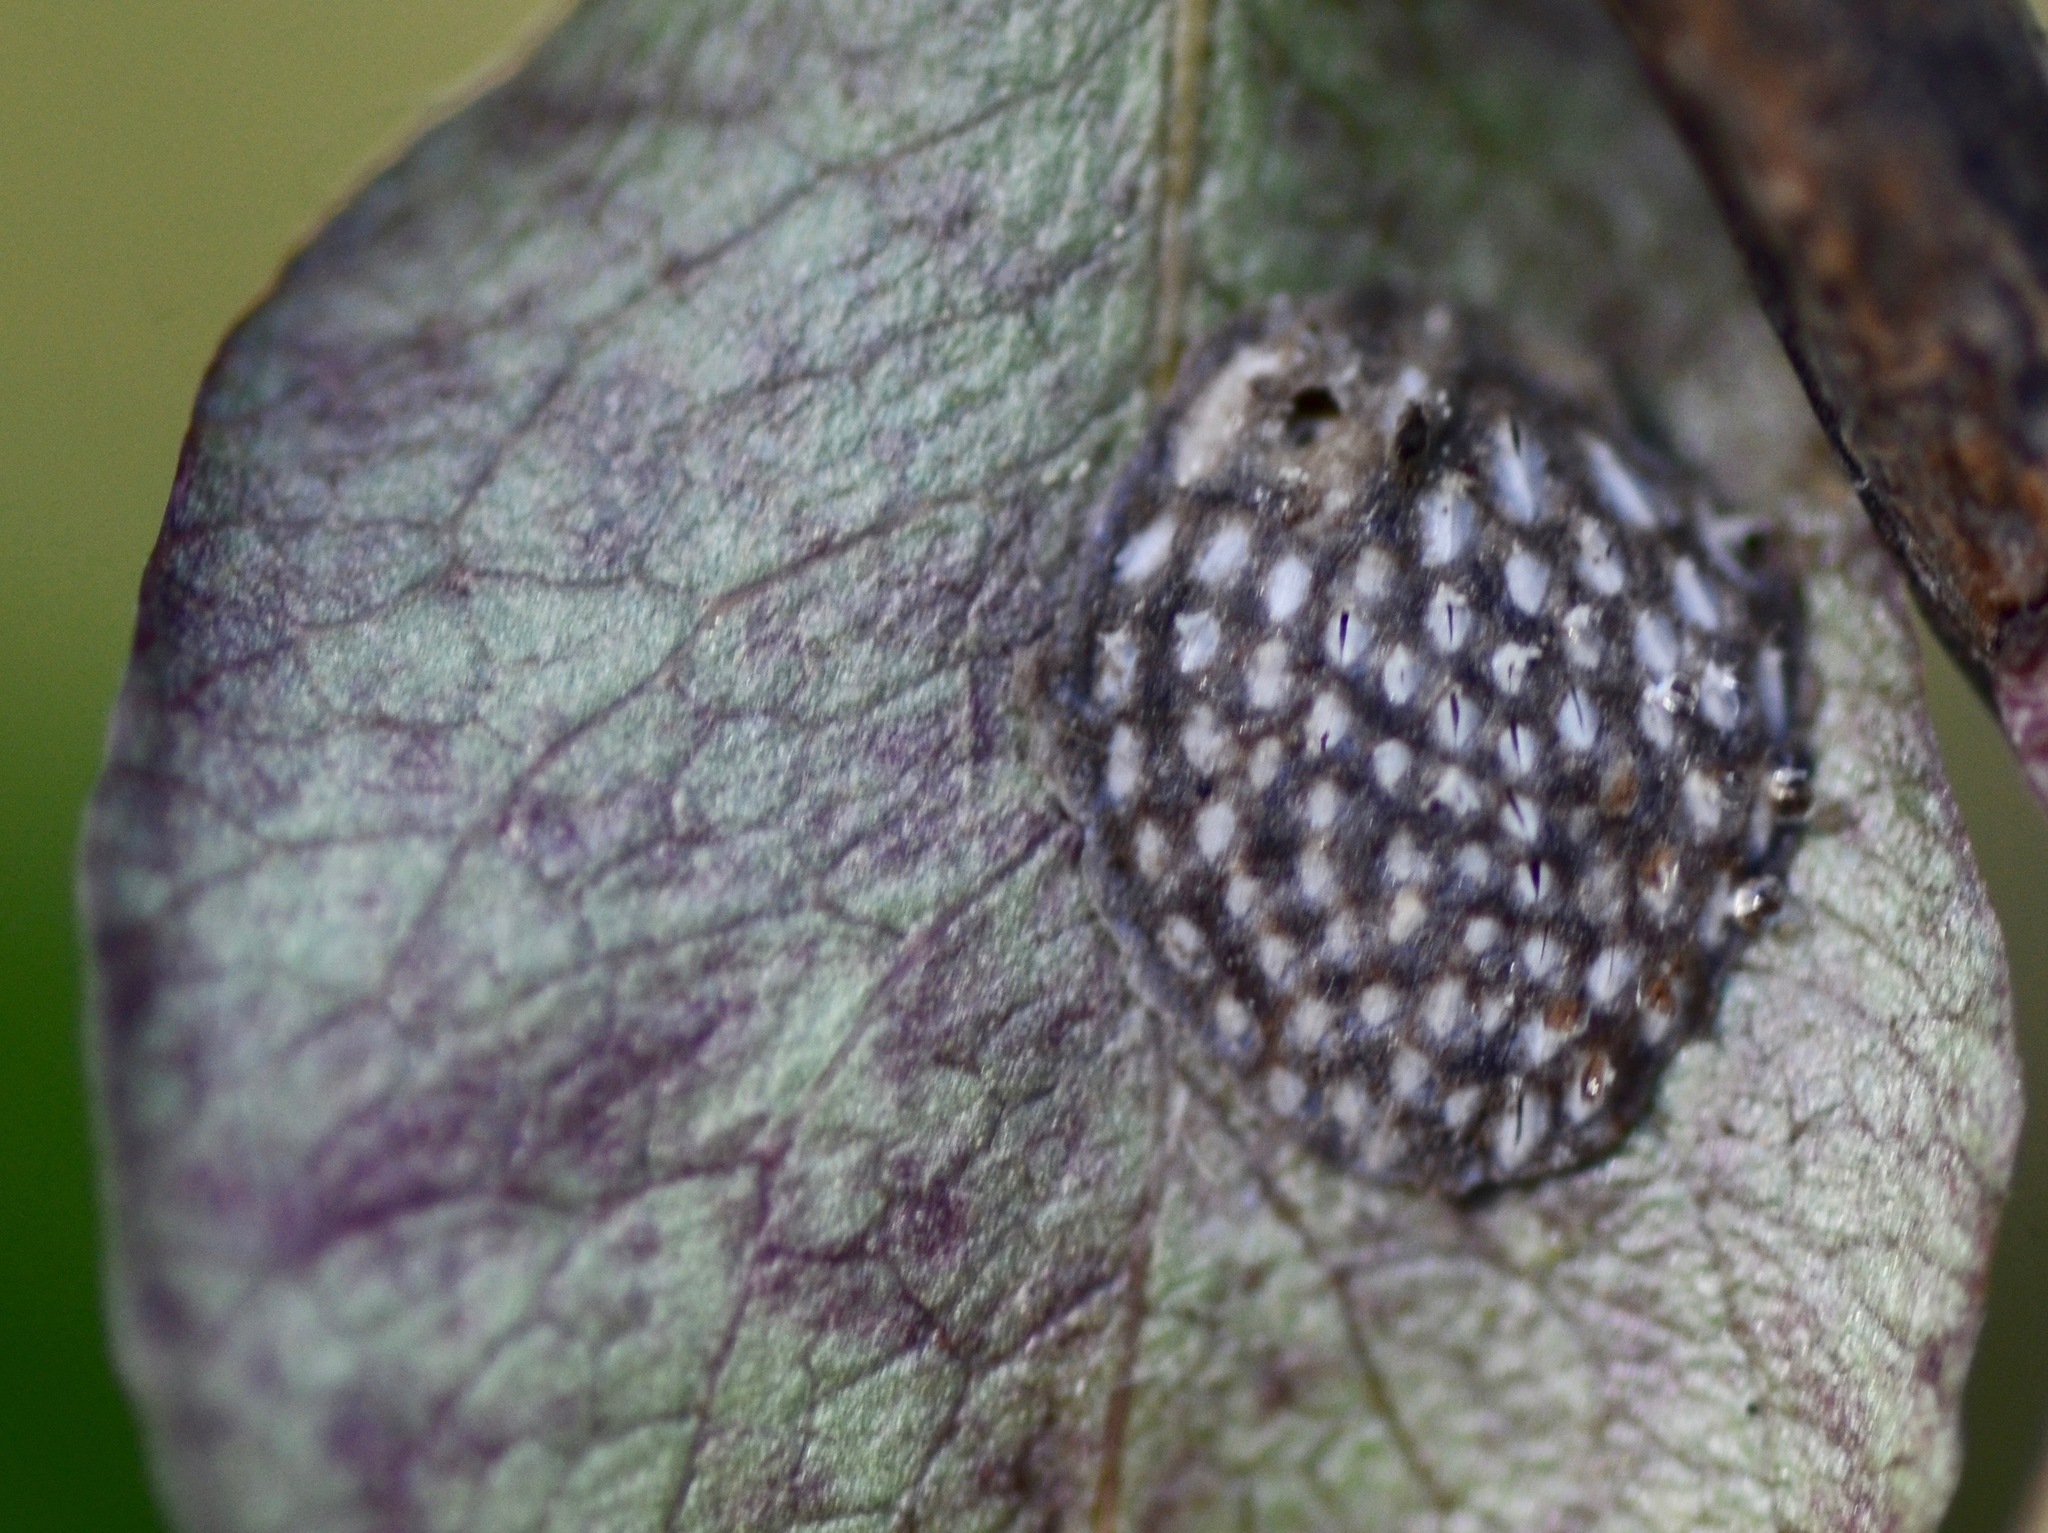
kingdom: Animalia
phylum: Arthropoda
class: Insecta
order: Hemiptera
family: Flatidae
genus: Siphanta
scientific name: Siphanta acuta
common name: Torpedo bug
